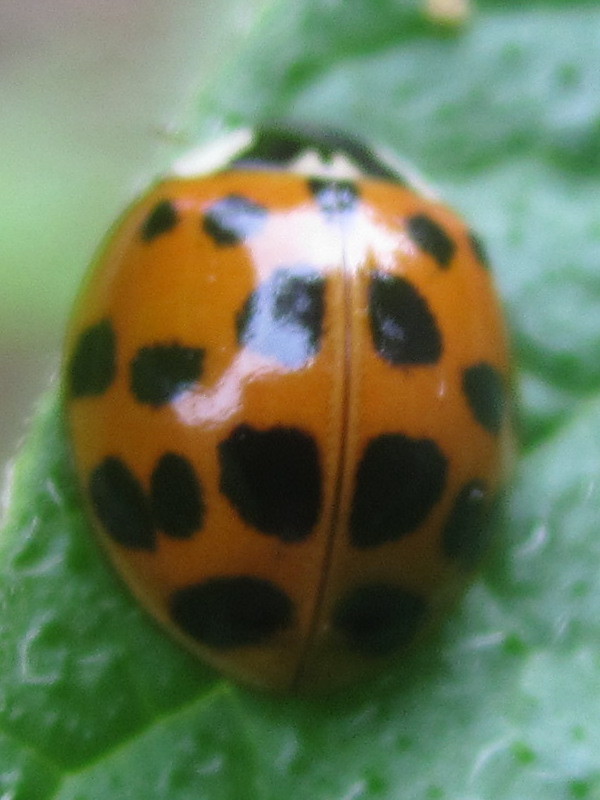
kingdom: Animalia
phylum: Arthropoda
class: Insecta
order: Coleoptera
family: Coccinellidae
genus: Harmonia
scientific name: Harmonia axyridis
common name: Harlequin ladybird
